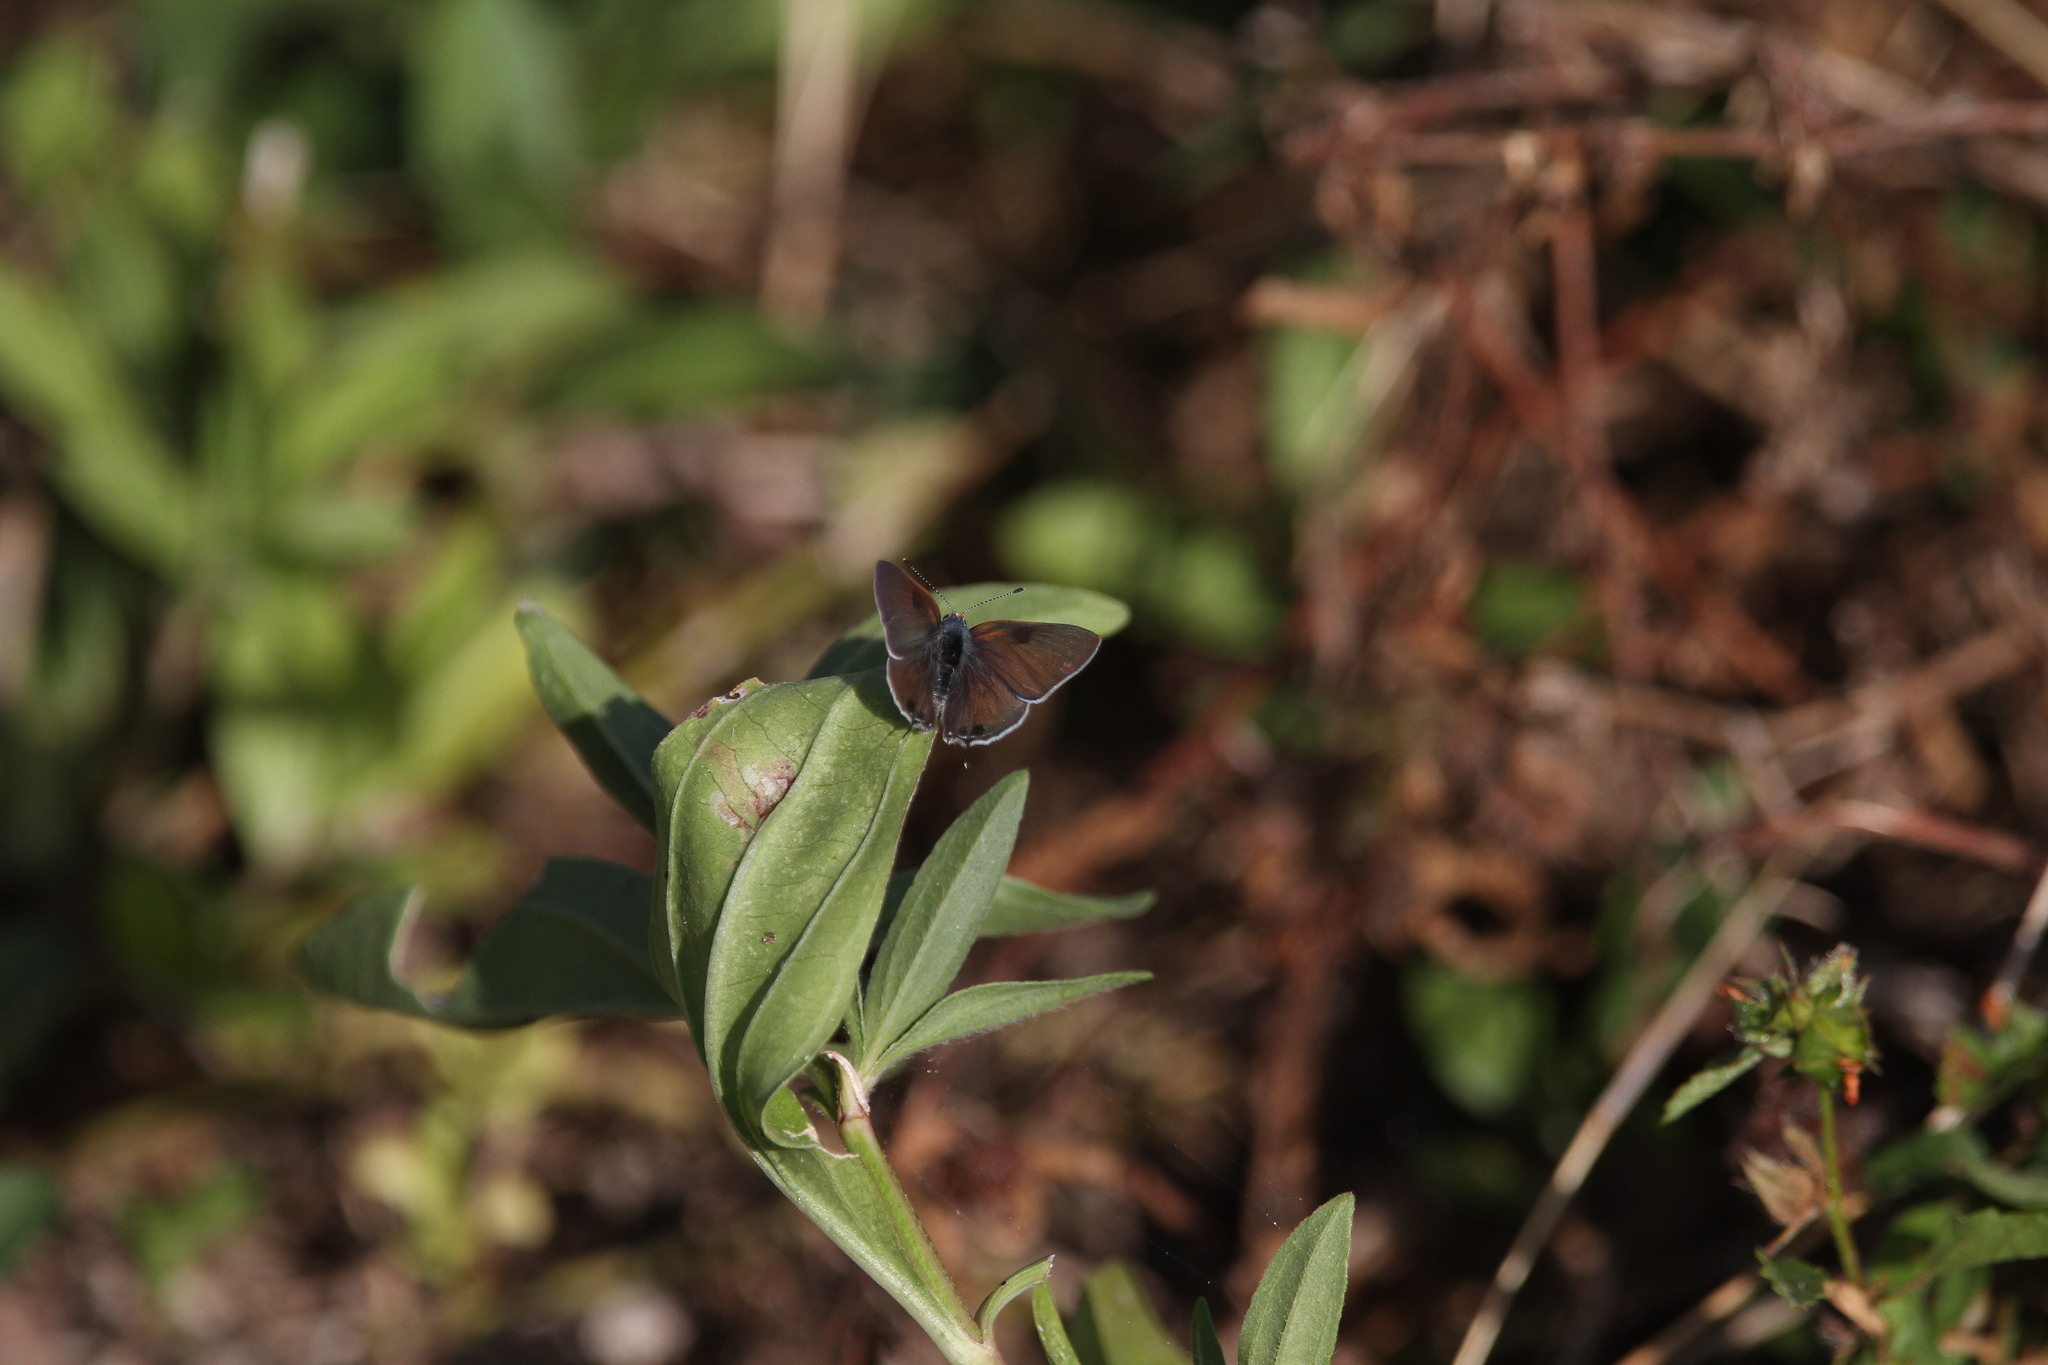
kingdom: Animalia
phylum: Arthropoda
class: Insecta
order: Lepidoptera
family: Lycaenidae
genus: Callicista
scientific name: Callicista columella
